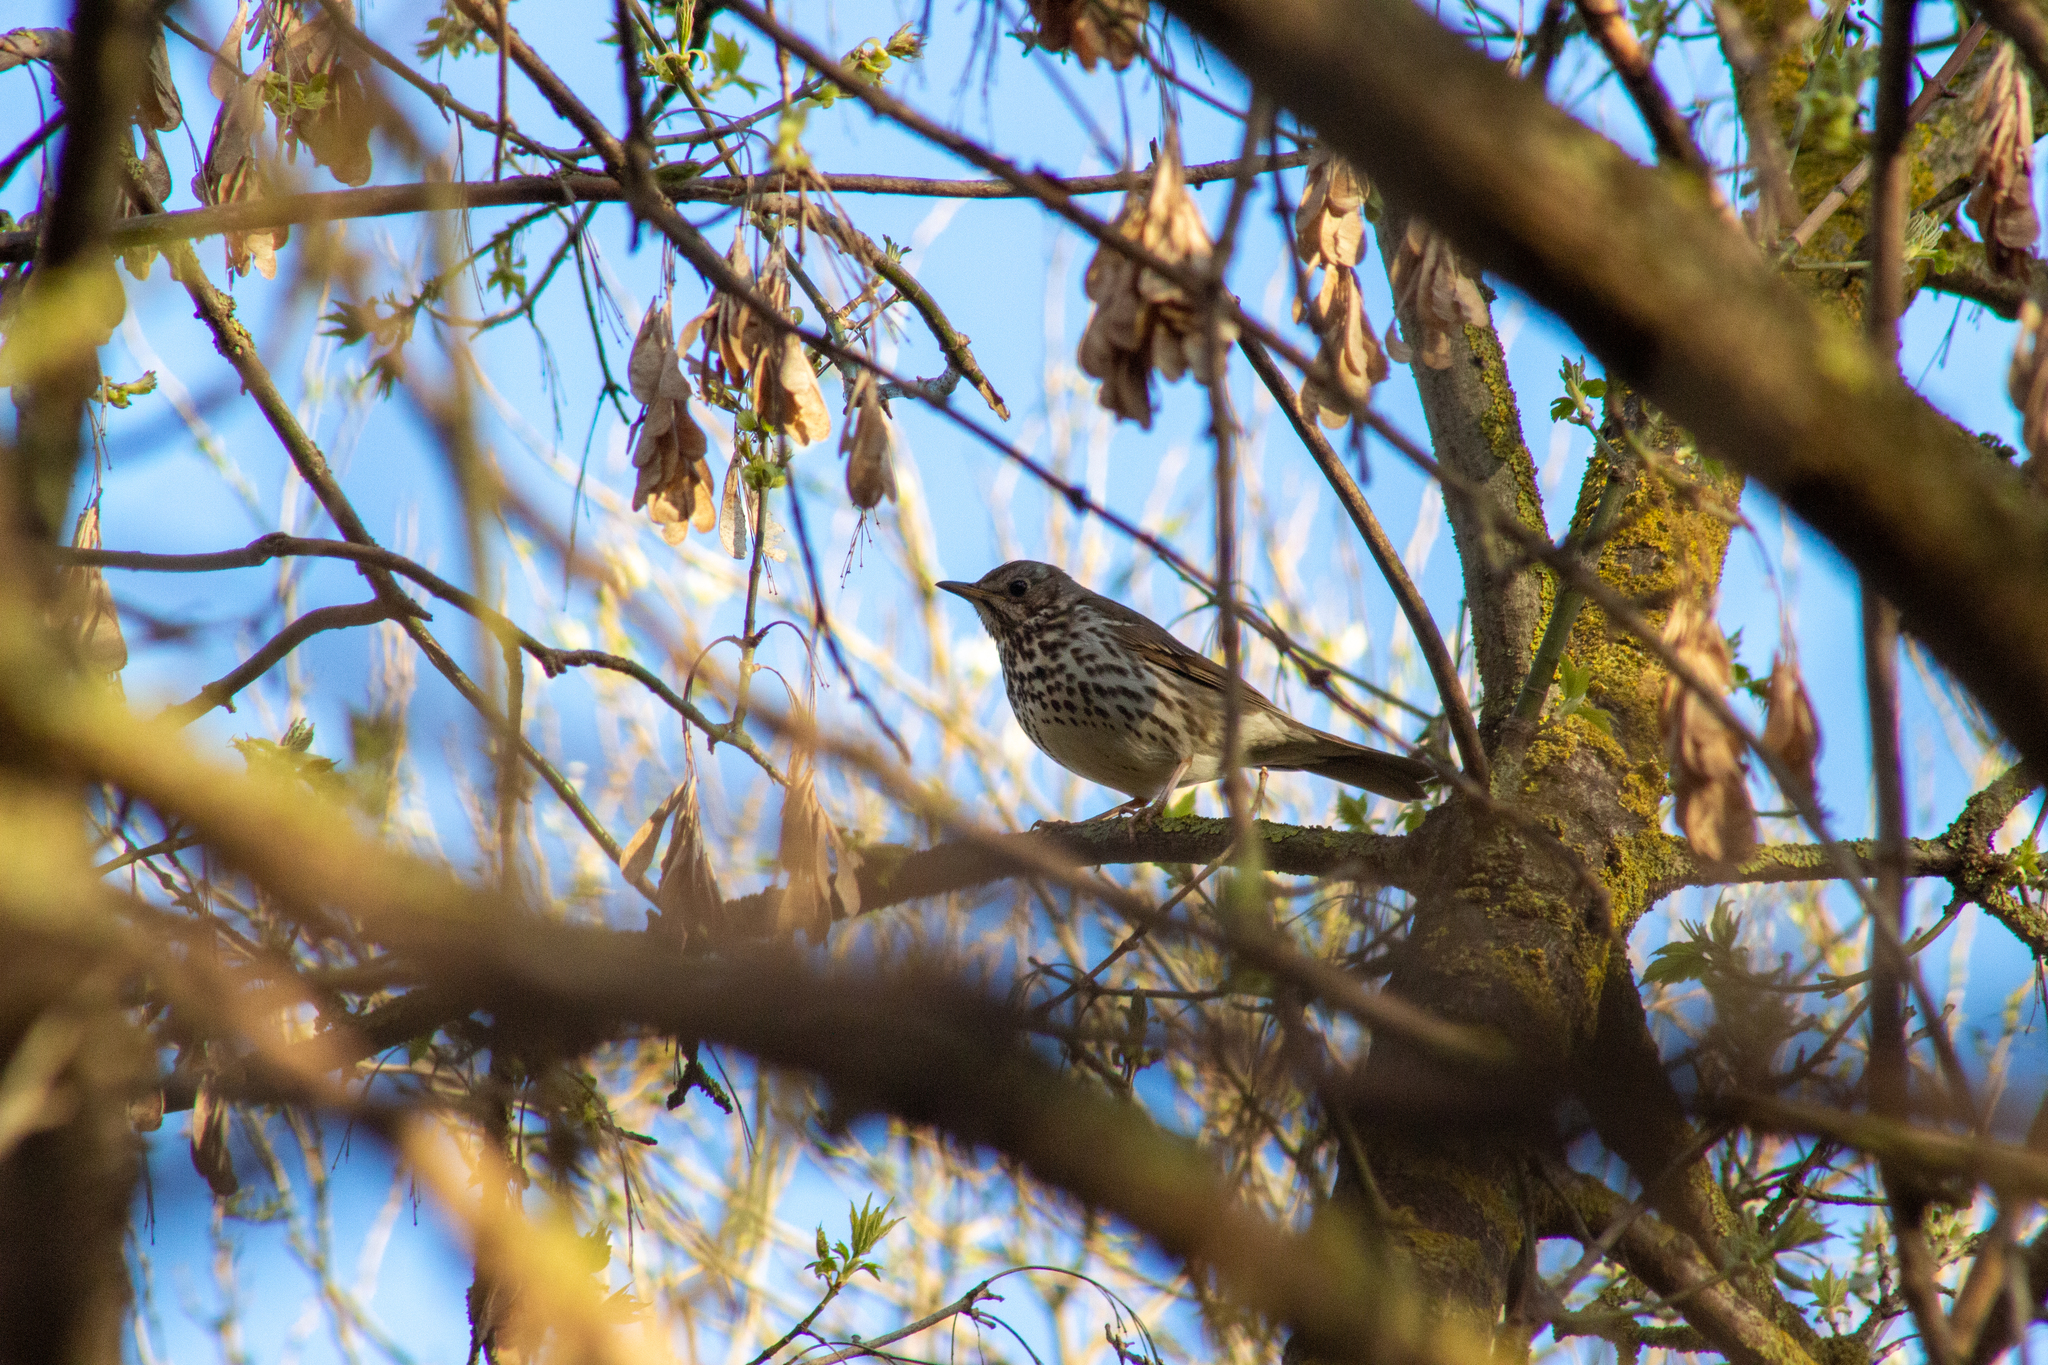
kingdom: Animalia
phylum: Chordata
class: Aves
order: Passeriformes
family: Turdidae
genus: Turdus
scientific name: Turdus philomelos
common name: Song thrush
